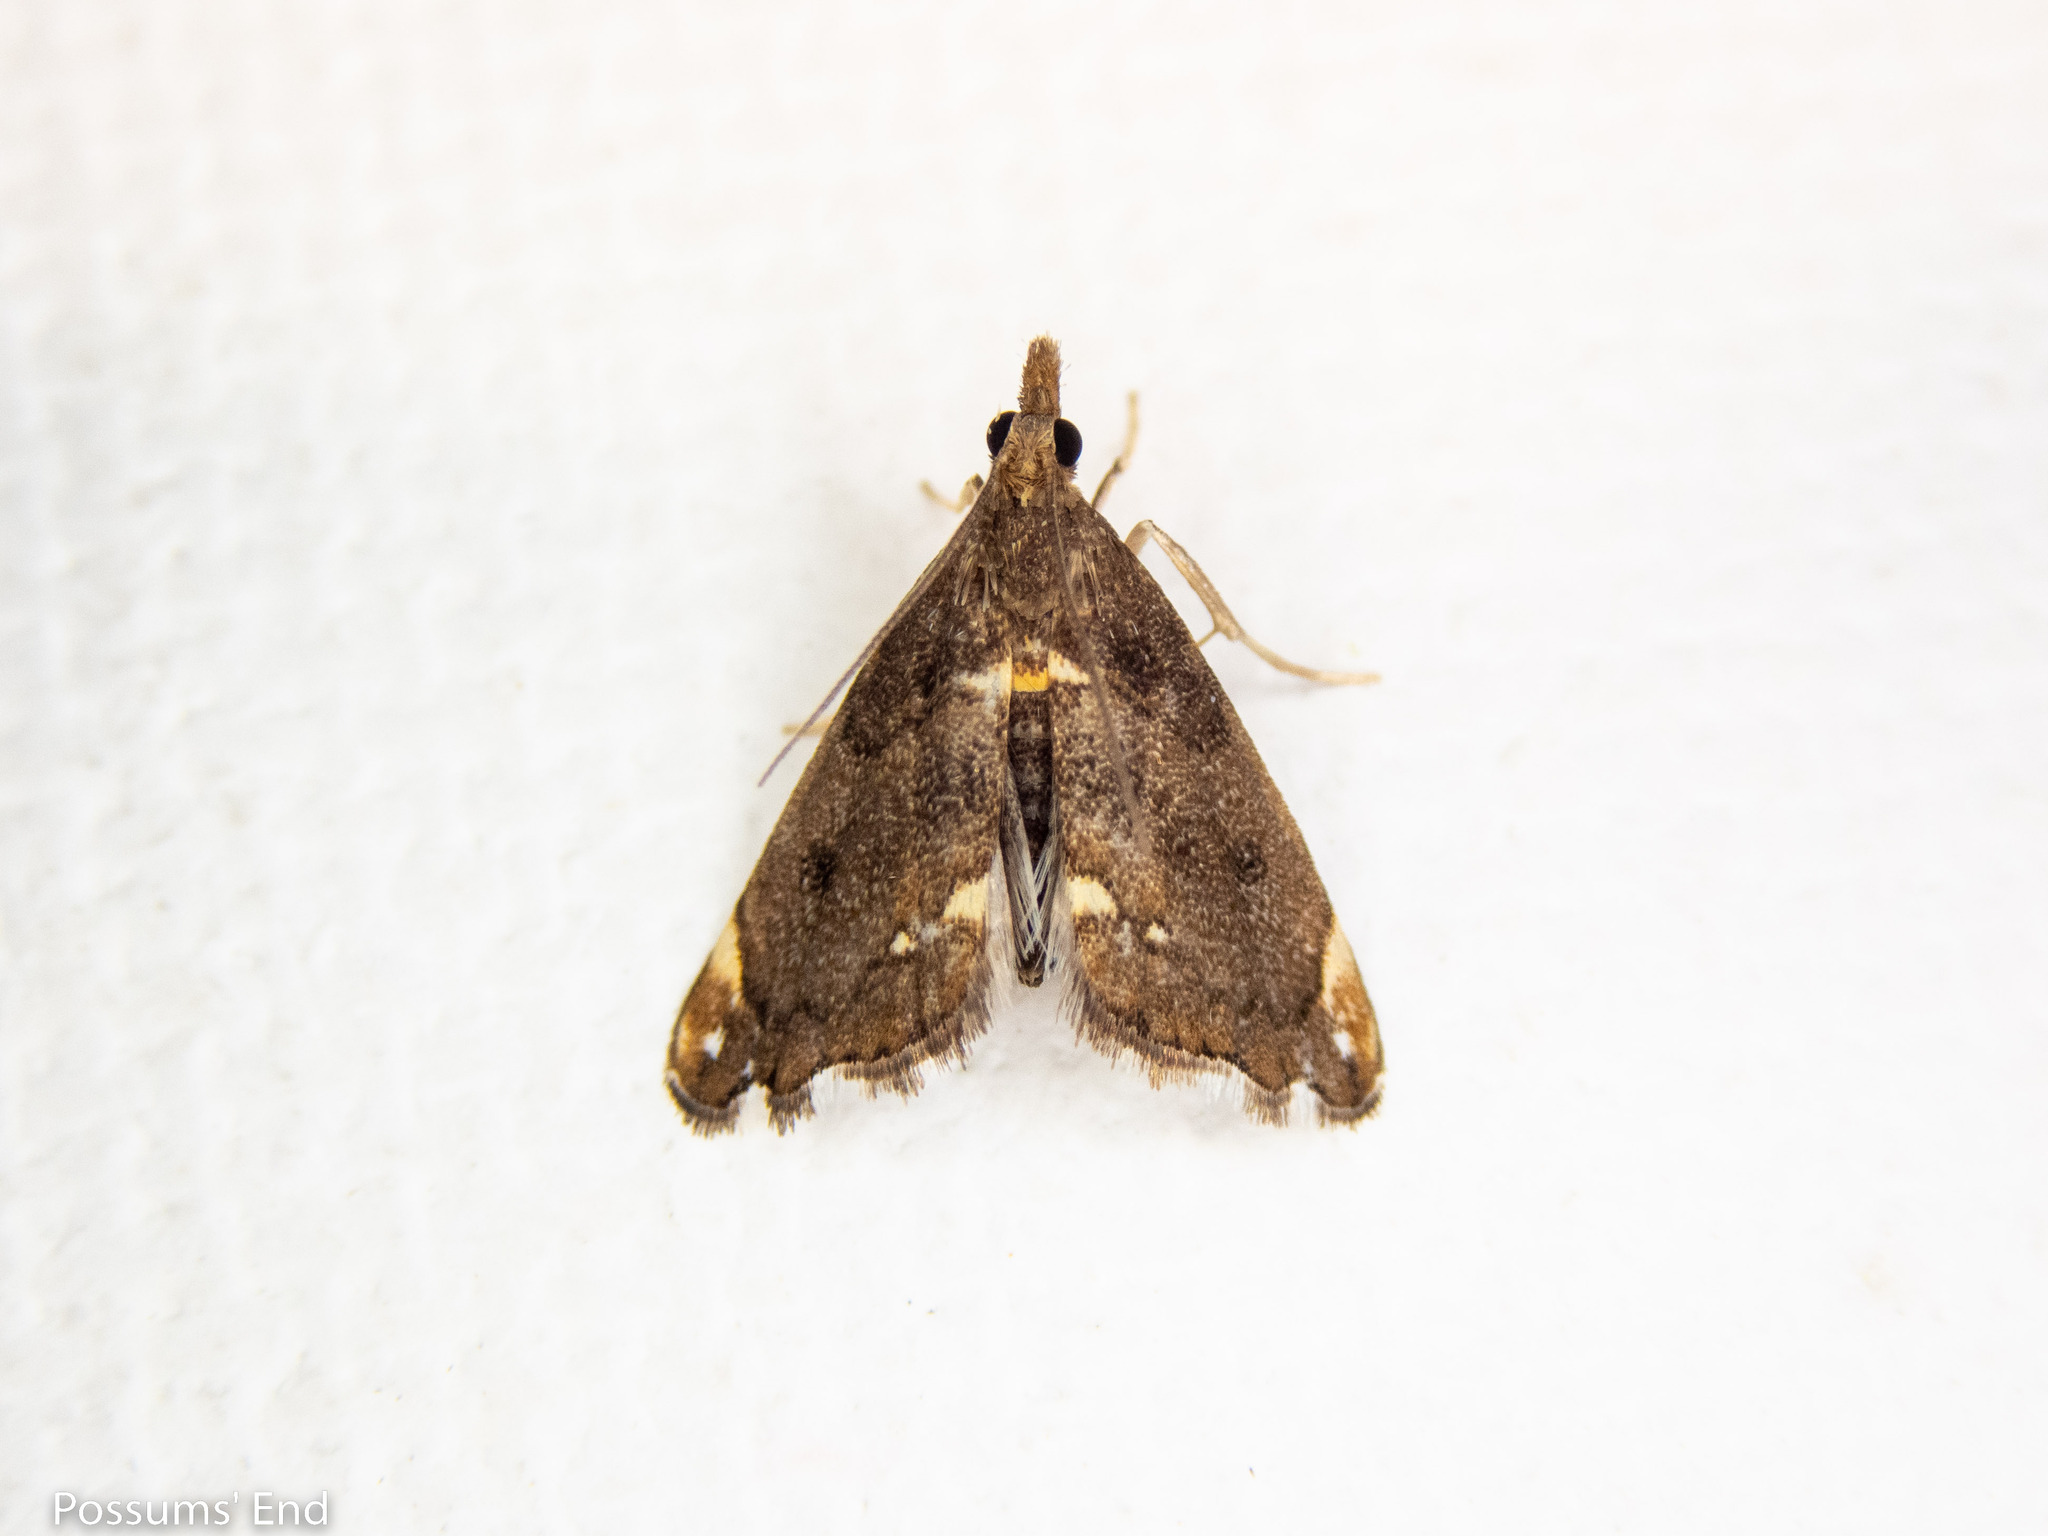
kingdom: Animalia
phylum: Arthropoda
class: Insecta
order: Lepidoptera
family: Crambidae
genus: Glaucocharis
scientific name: Glaucocharis pyrsophanes
